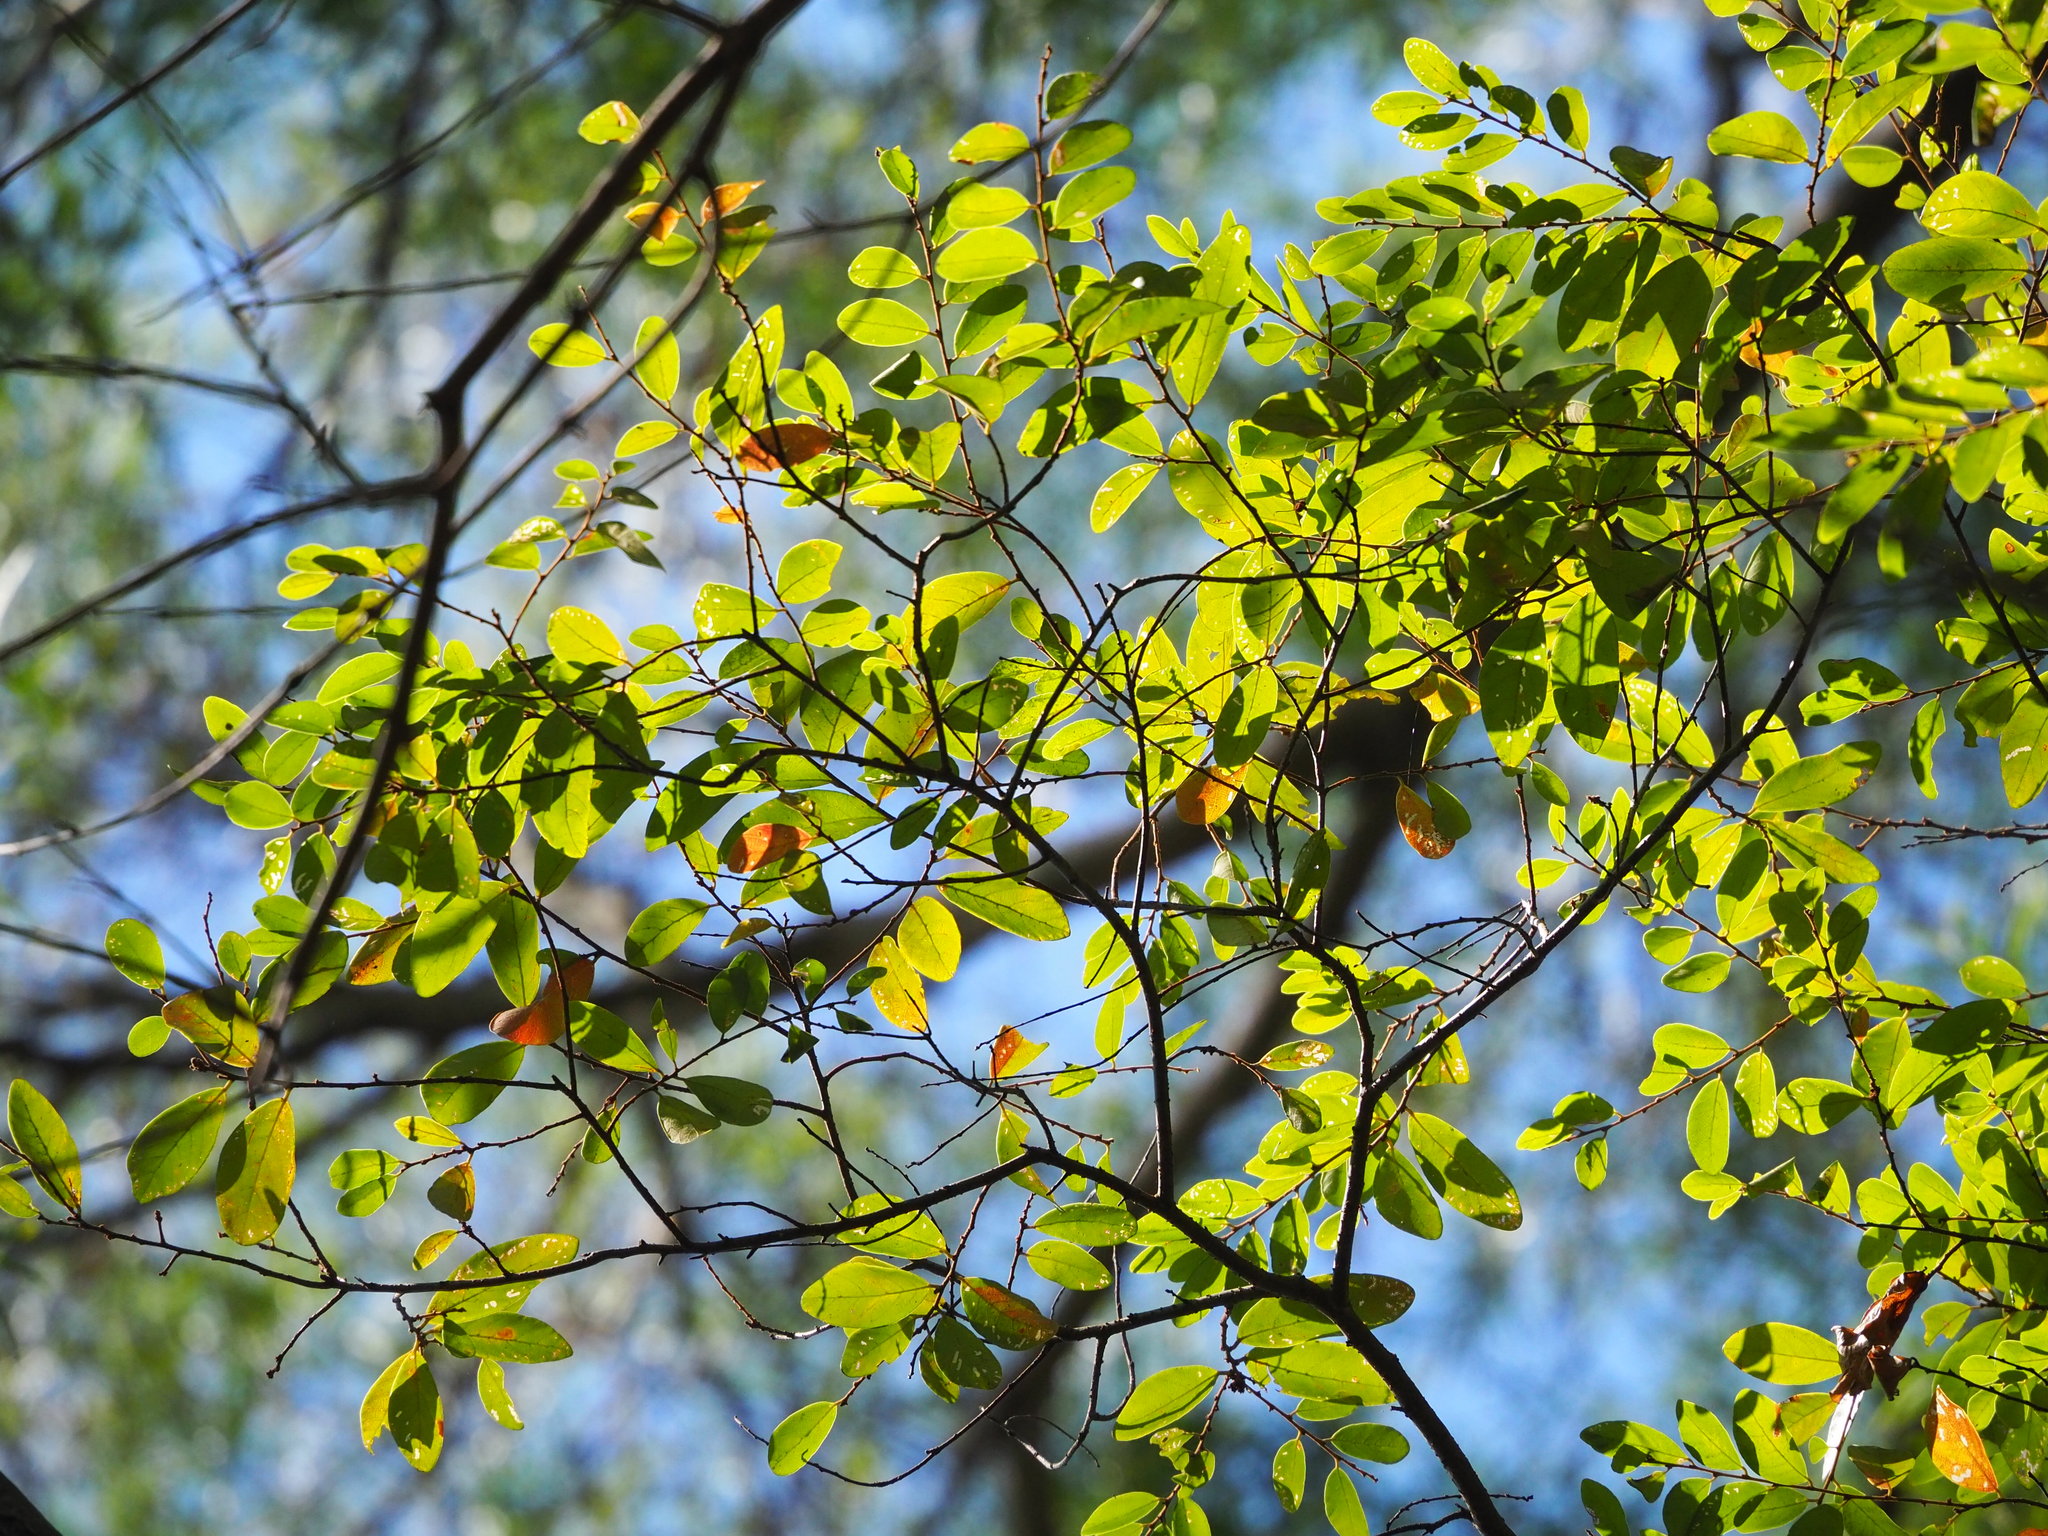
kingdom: Plantae
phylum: Tracheophyta
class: Magnoliopsida
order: Malpighiales
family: Phyllanthaceae
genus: Bridelia
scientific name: Bridelia tomentosa
